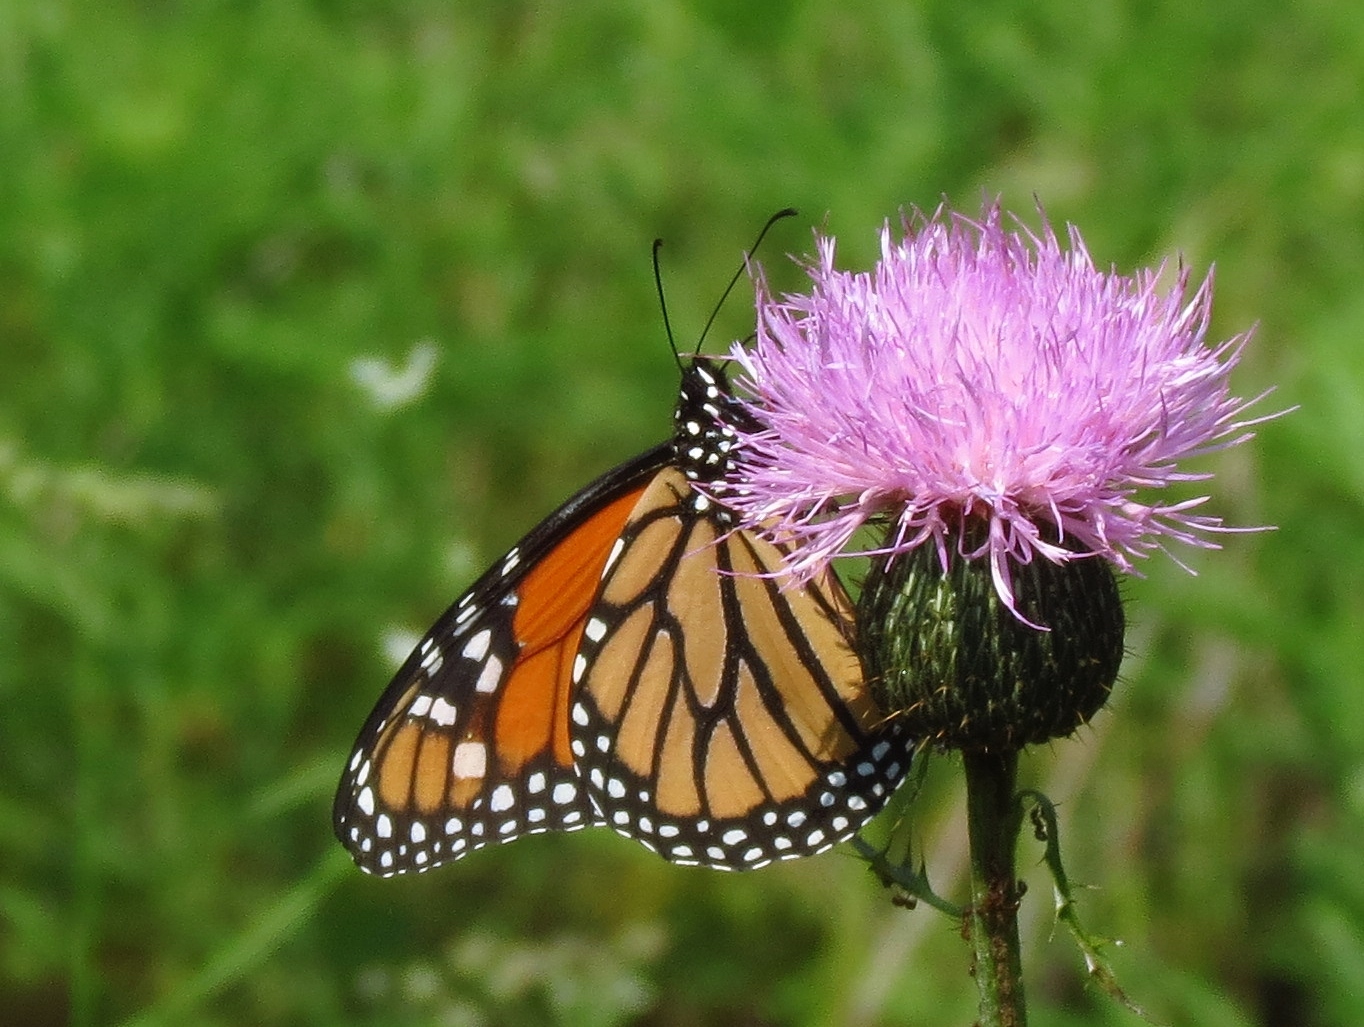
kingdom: Animalia
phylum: Arthropoda
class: Insecta
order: Lepidoptera
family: Nymphalidae
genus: Danaus
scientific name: Danaus plexippus
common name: Monarch
